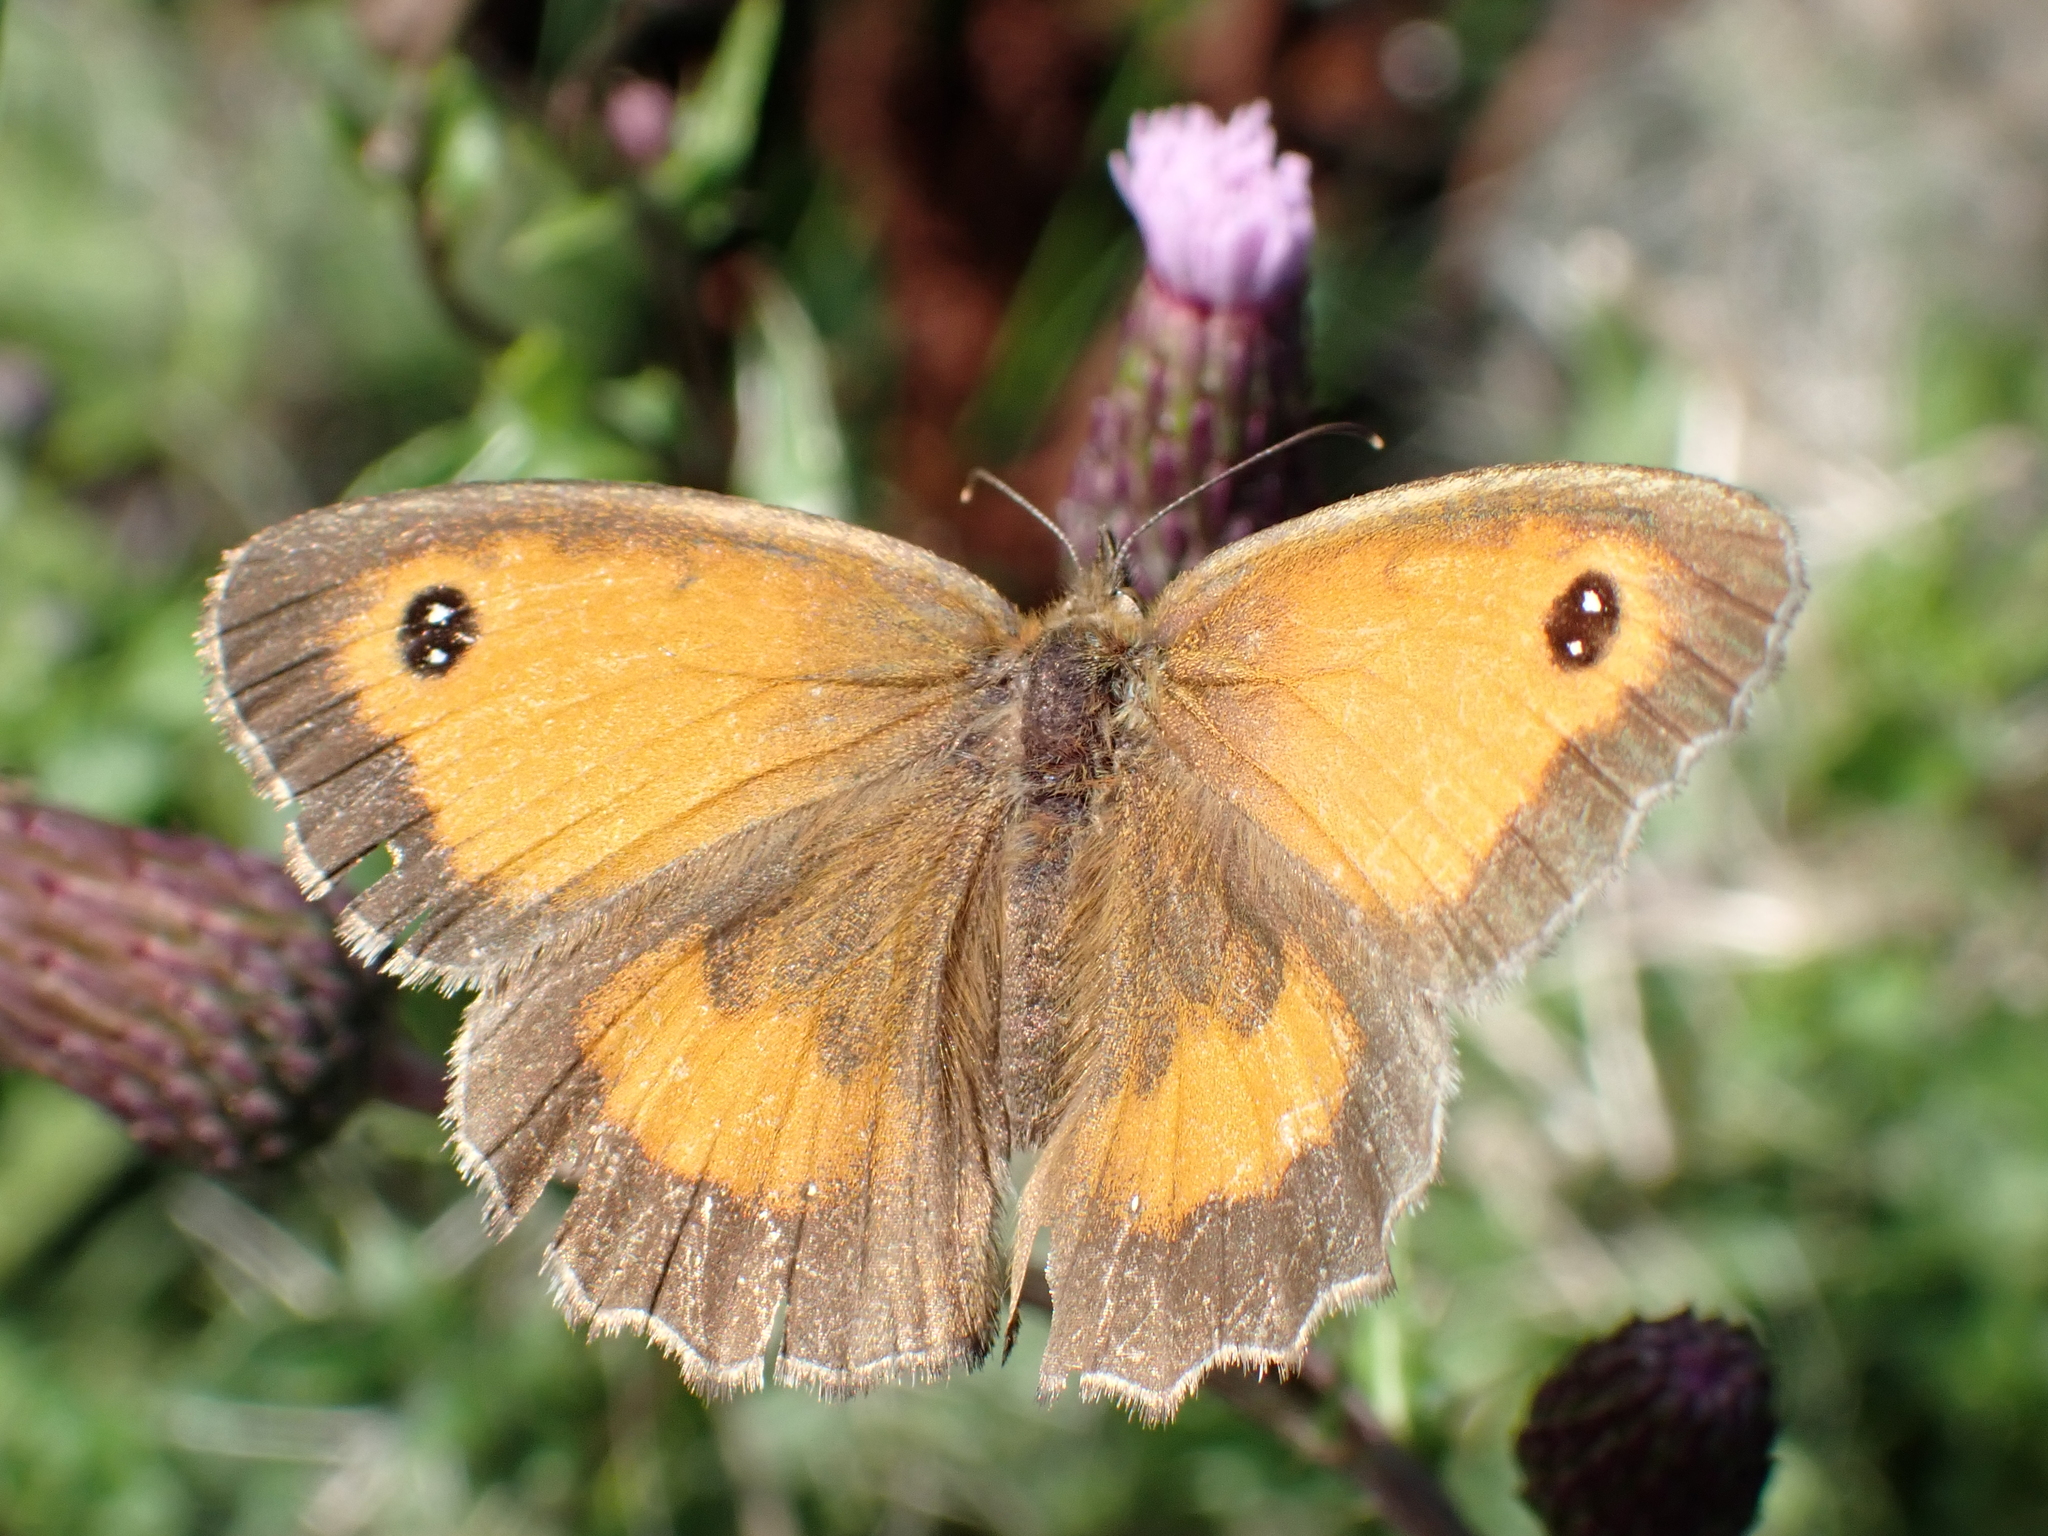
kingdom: Animalia
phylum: Arthropoda
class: Insecta
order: Lepidoptera
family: Nymphalidae
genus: Pyronia
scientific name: Pyronia tithonus
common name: Gatekeeper
